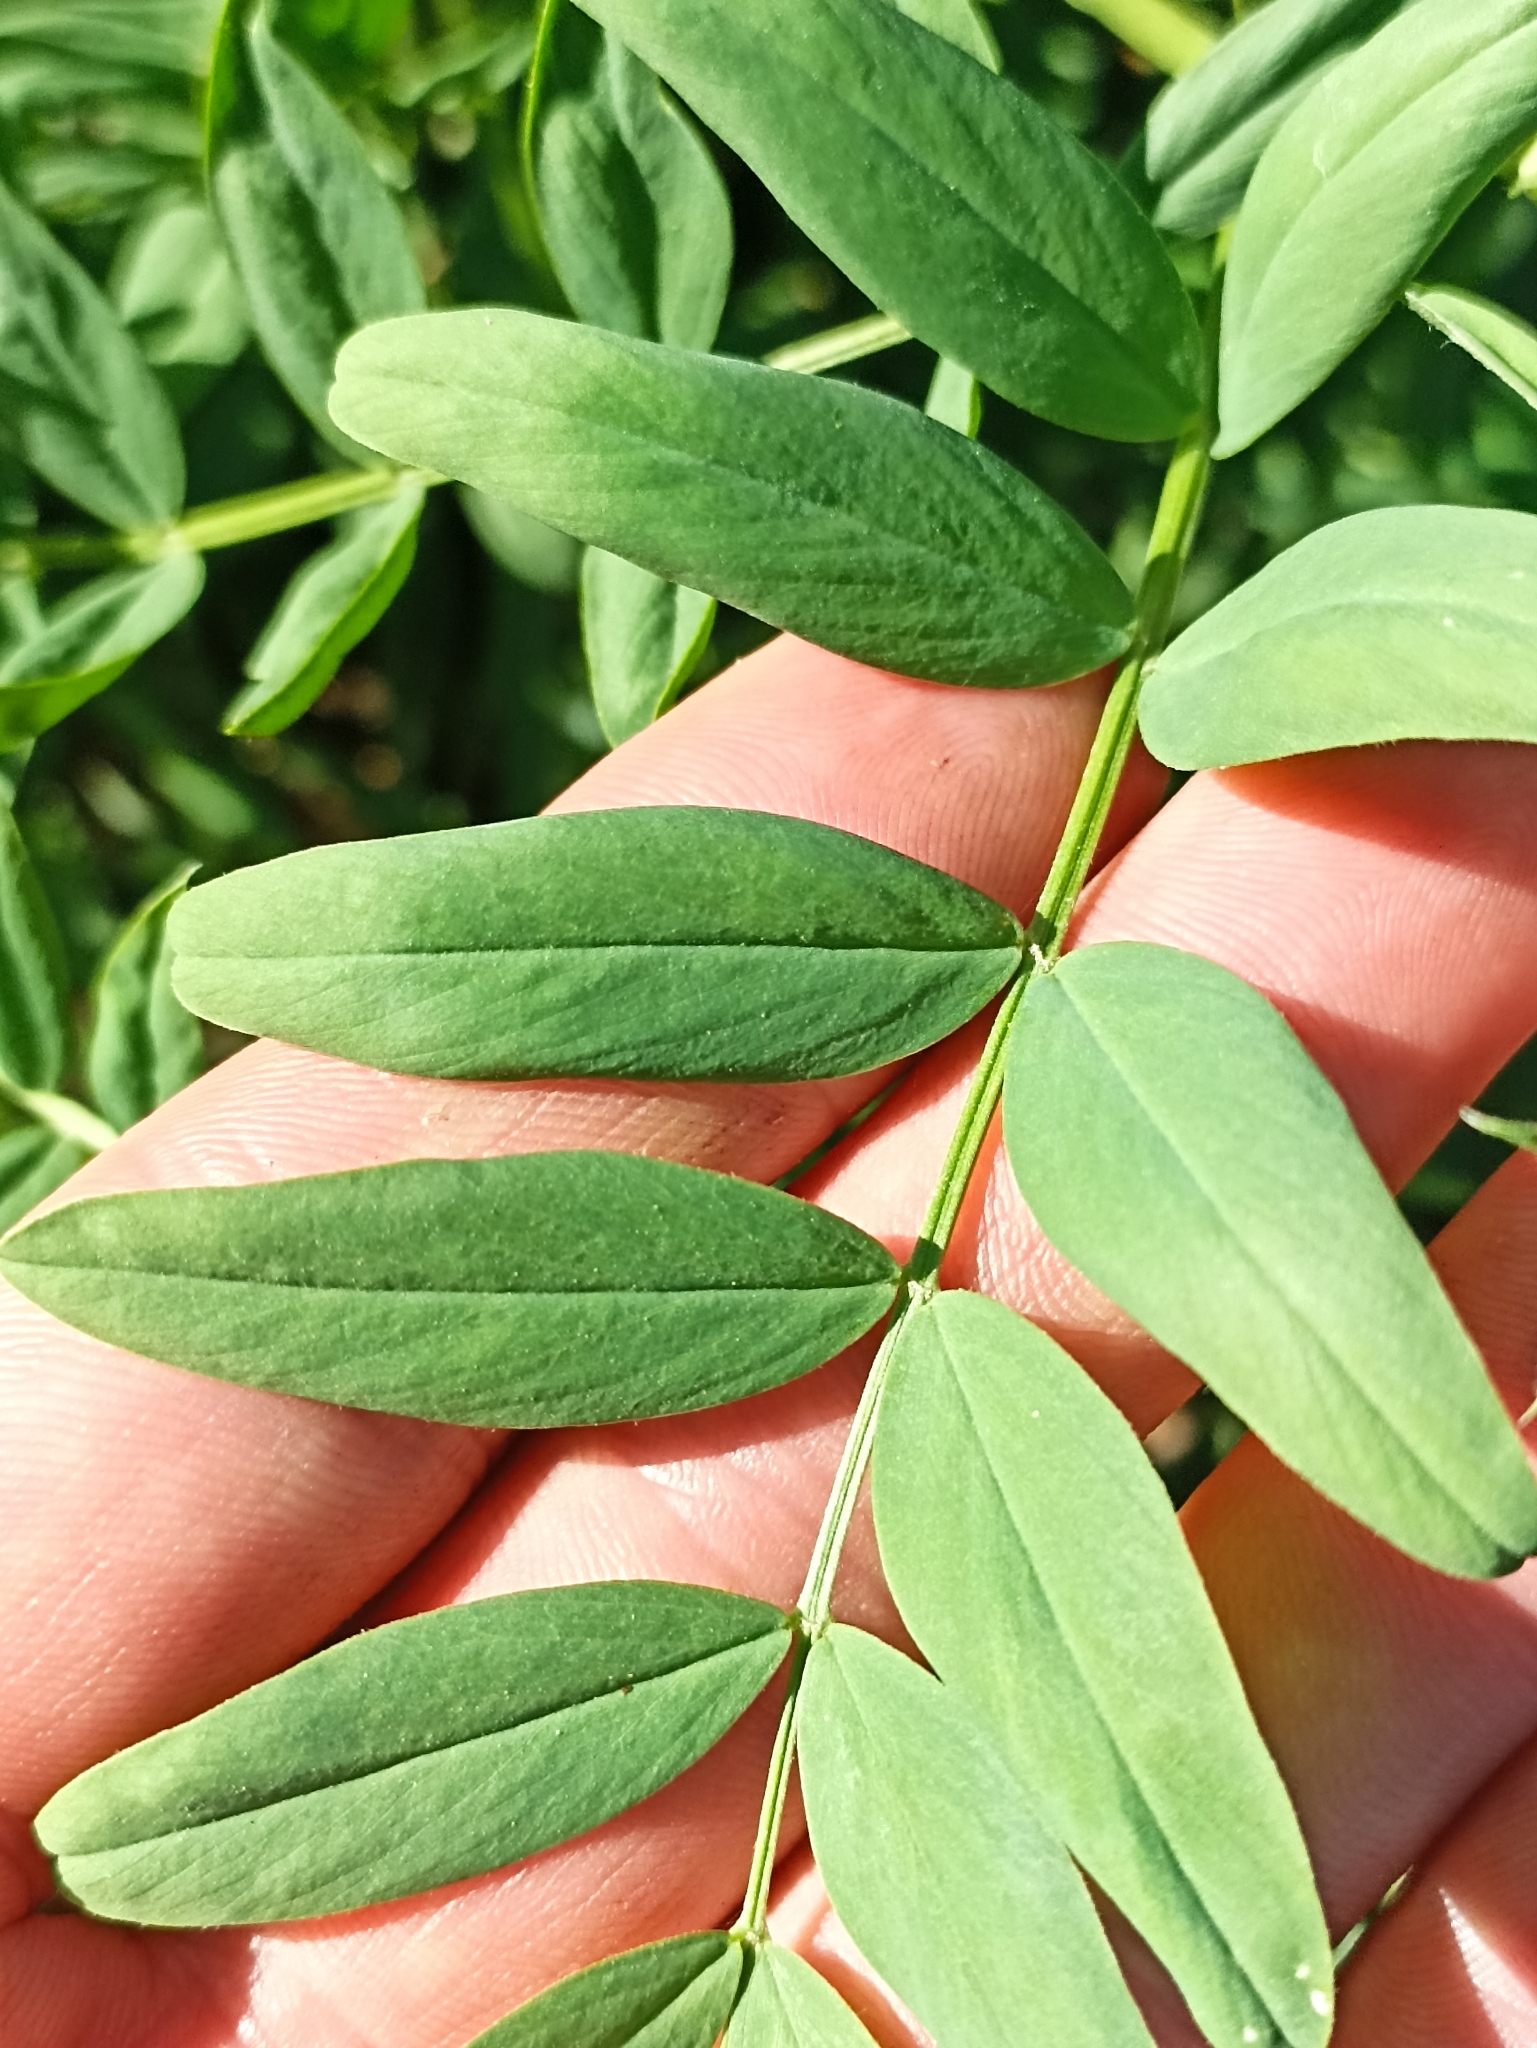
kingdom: Plantae
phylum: Tracheophyta
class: Magnoliopsida
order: Fabales
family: Fabaceae
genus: Galega
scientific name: Galega officinalis
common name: Goat's-rue
